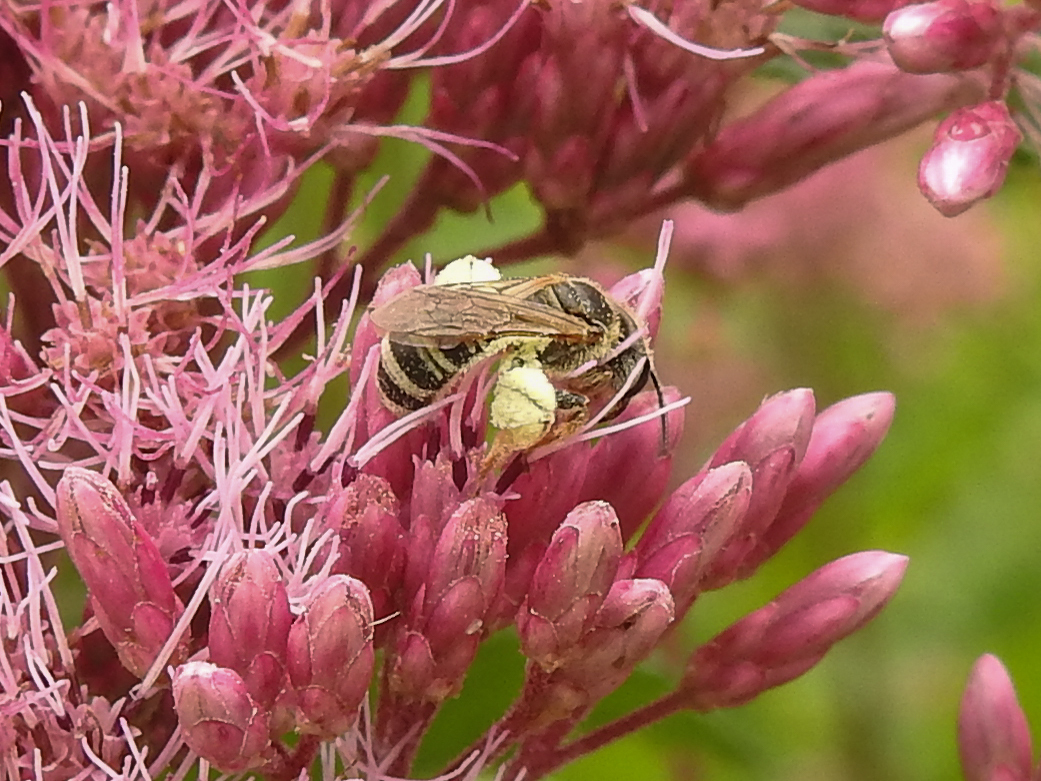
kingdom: Animalia
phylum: Arthropoda
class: Insecta
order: Hymenoptera
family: Halictidae
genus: Halictus
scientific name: Halictus ligatus
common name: Ligated furrow bee
